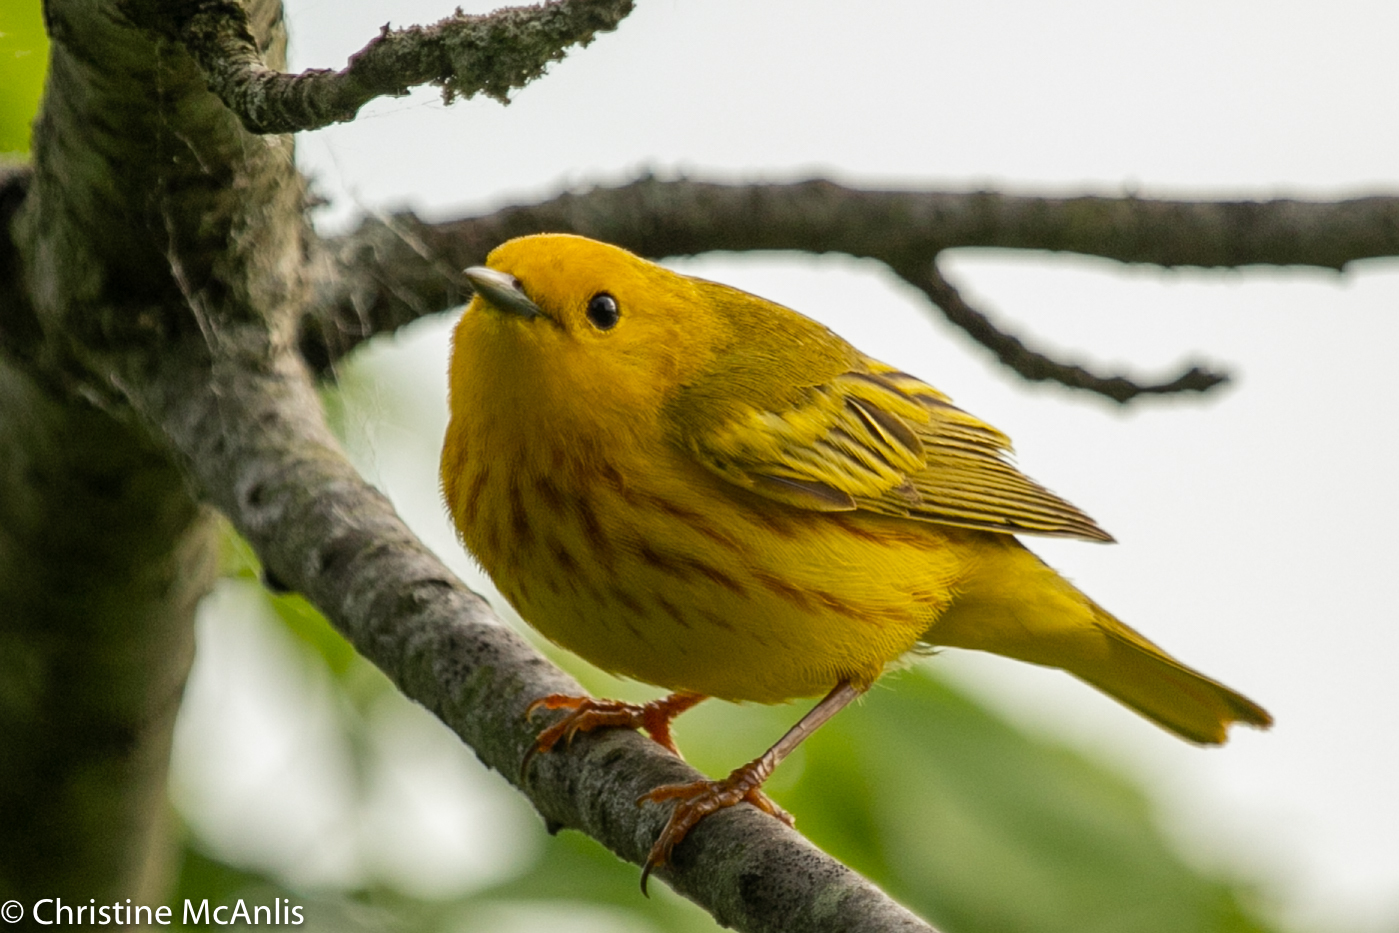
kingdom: Animalia
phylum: Chordata
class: Aves
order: Passeriformes
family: Parulidae
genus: Setophaga
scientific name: Setophaga petechia
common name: Yellow warbler
